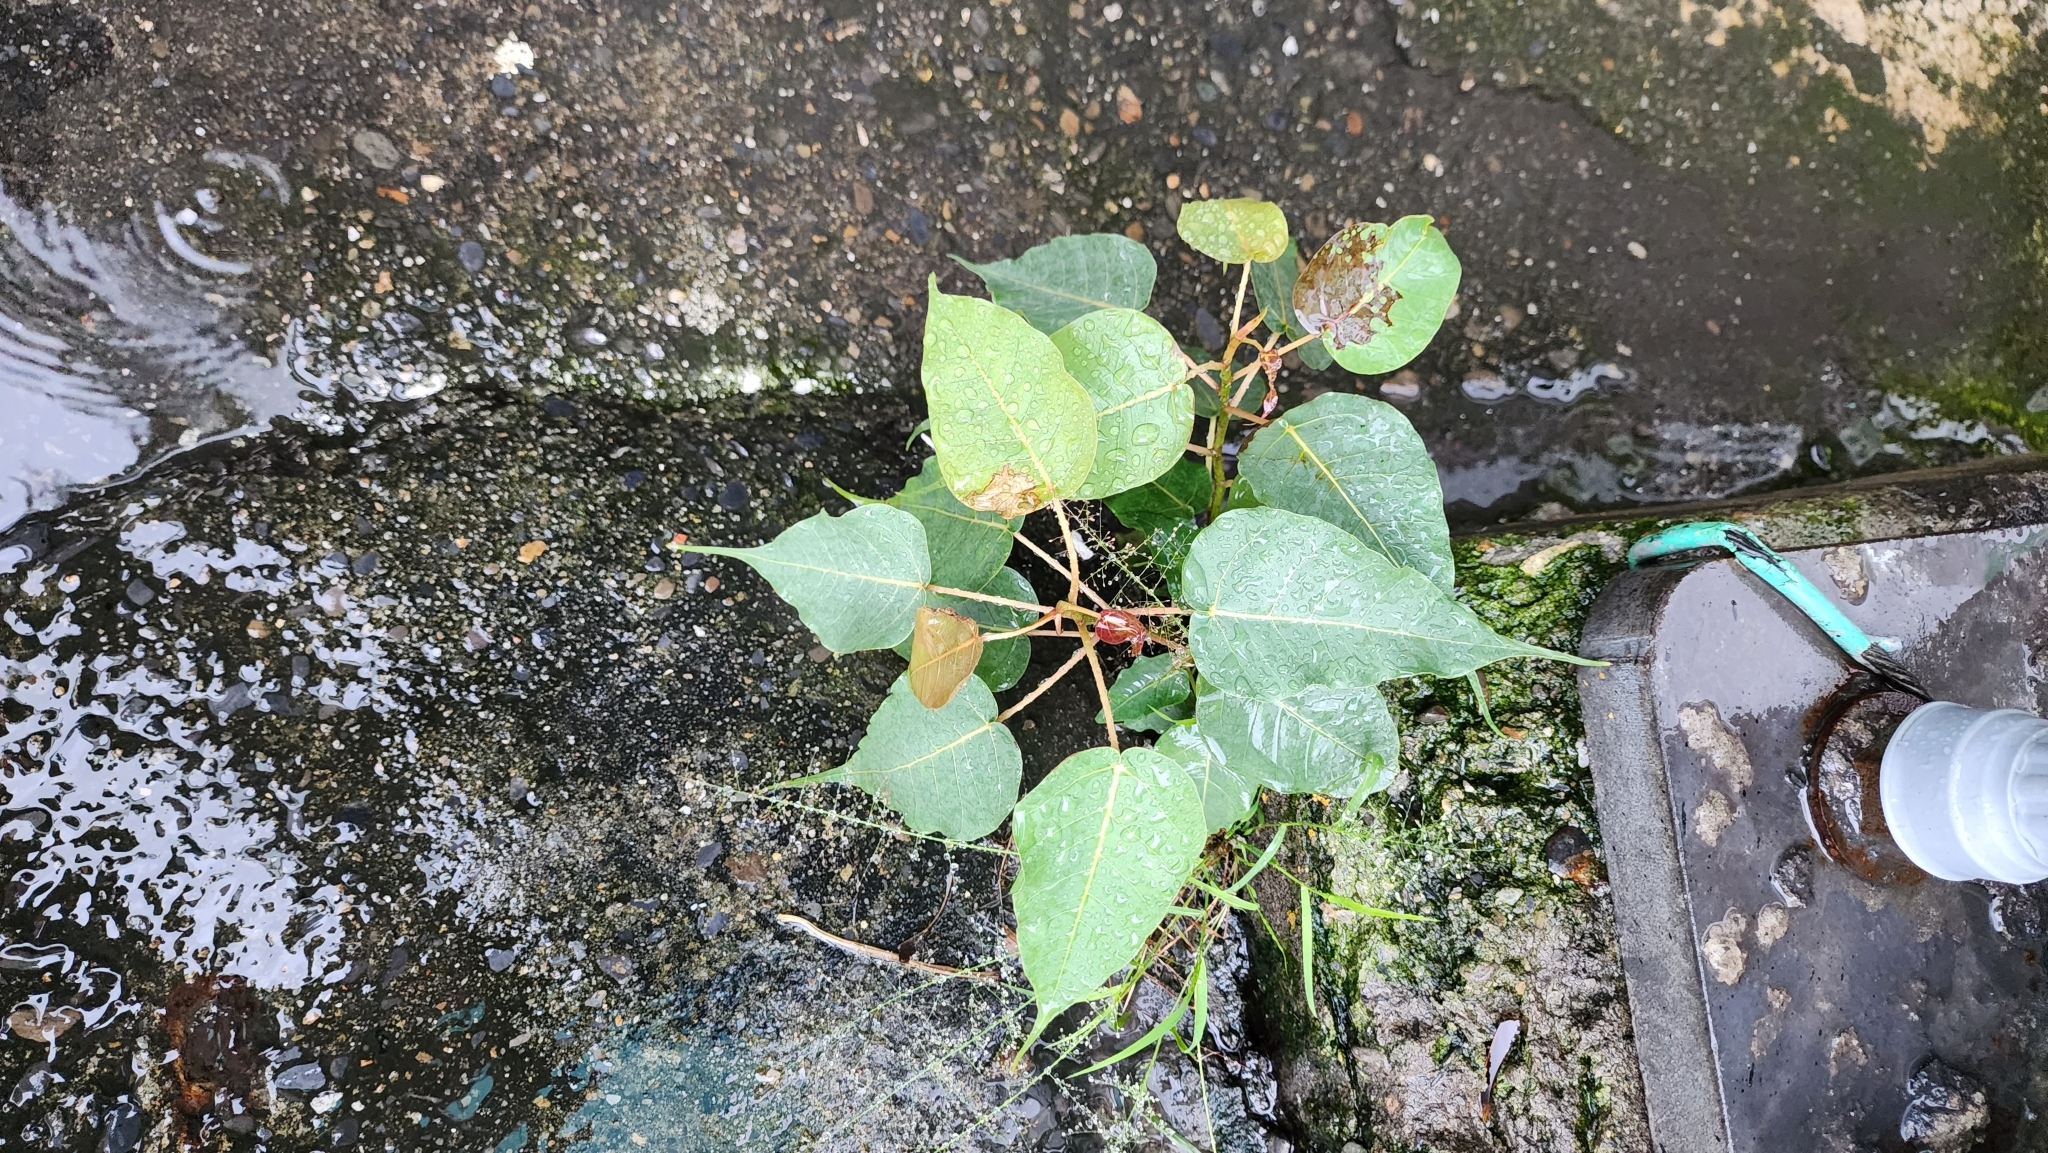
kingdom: Plantae
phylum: Tracheophyta
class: Magnoliopsida
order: Rosales
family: Moraceae
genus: Ficus
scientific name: Ficus religiosa
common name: Bodhi tree
